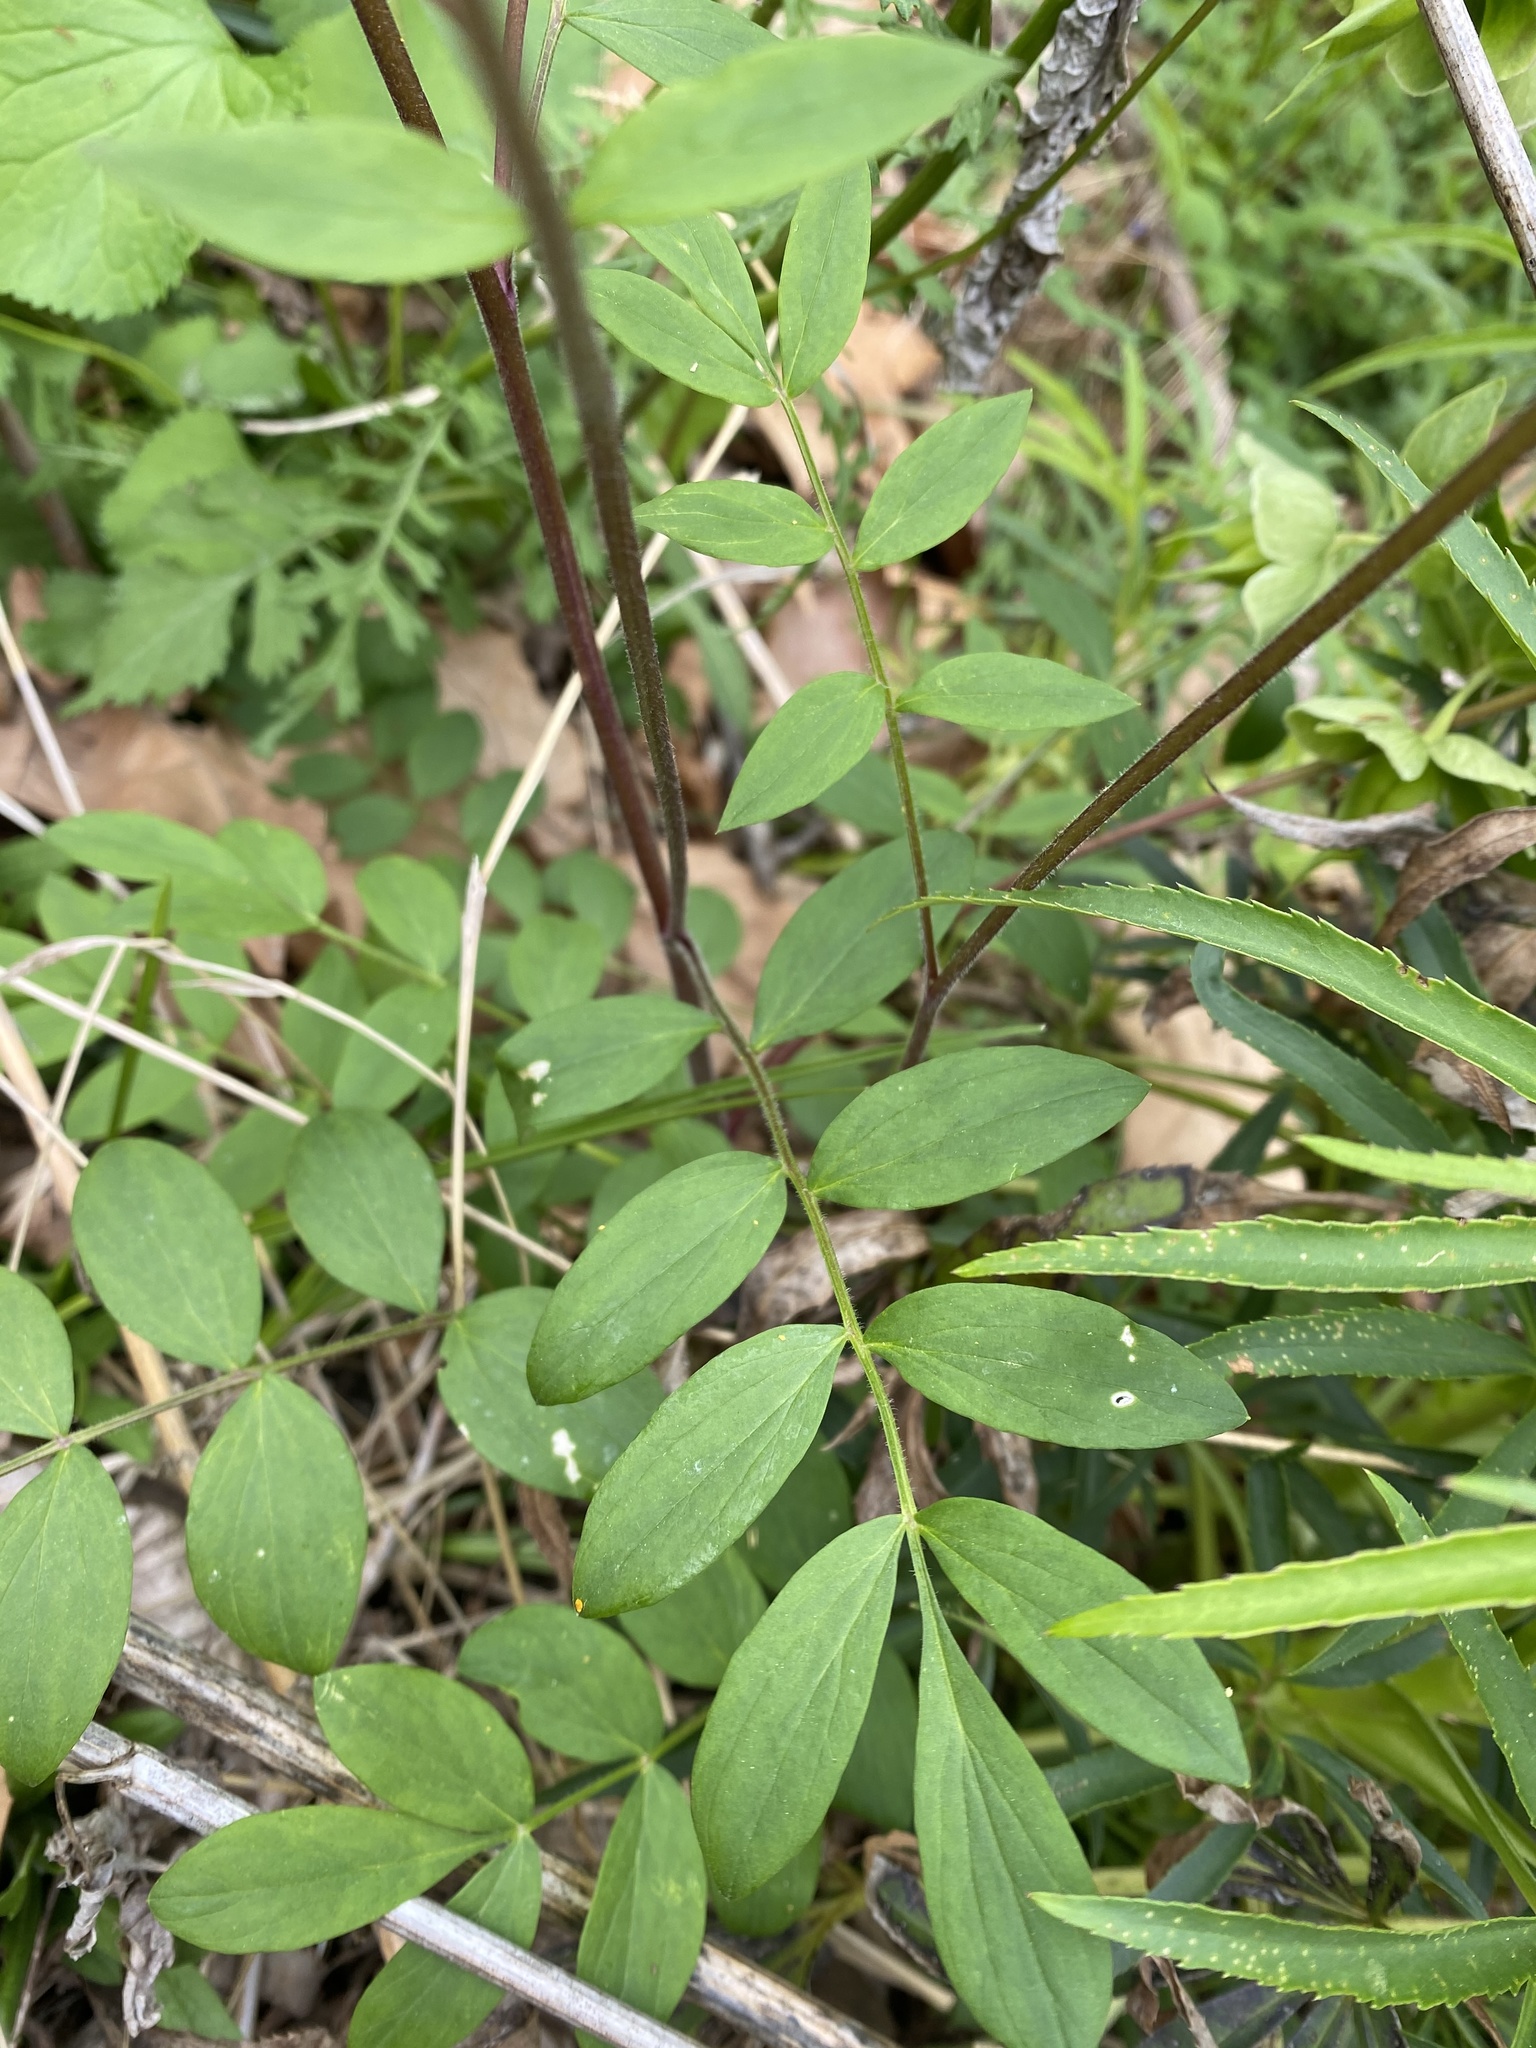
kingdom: Plantae
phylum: Tracheophyta
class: Magnoliopsida
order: Ericales
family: Polemoniaceae
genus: Polemonium
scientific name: Polemonium reptans
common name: Creeping jacob's-ladder
